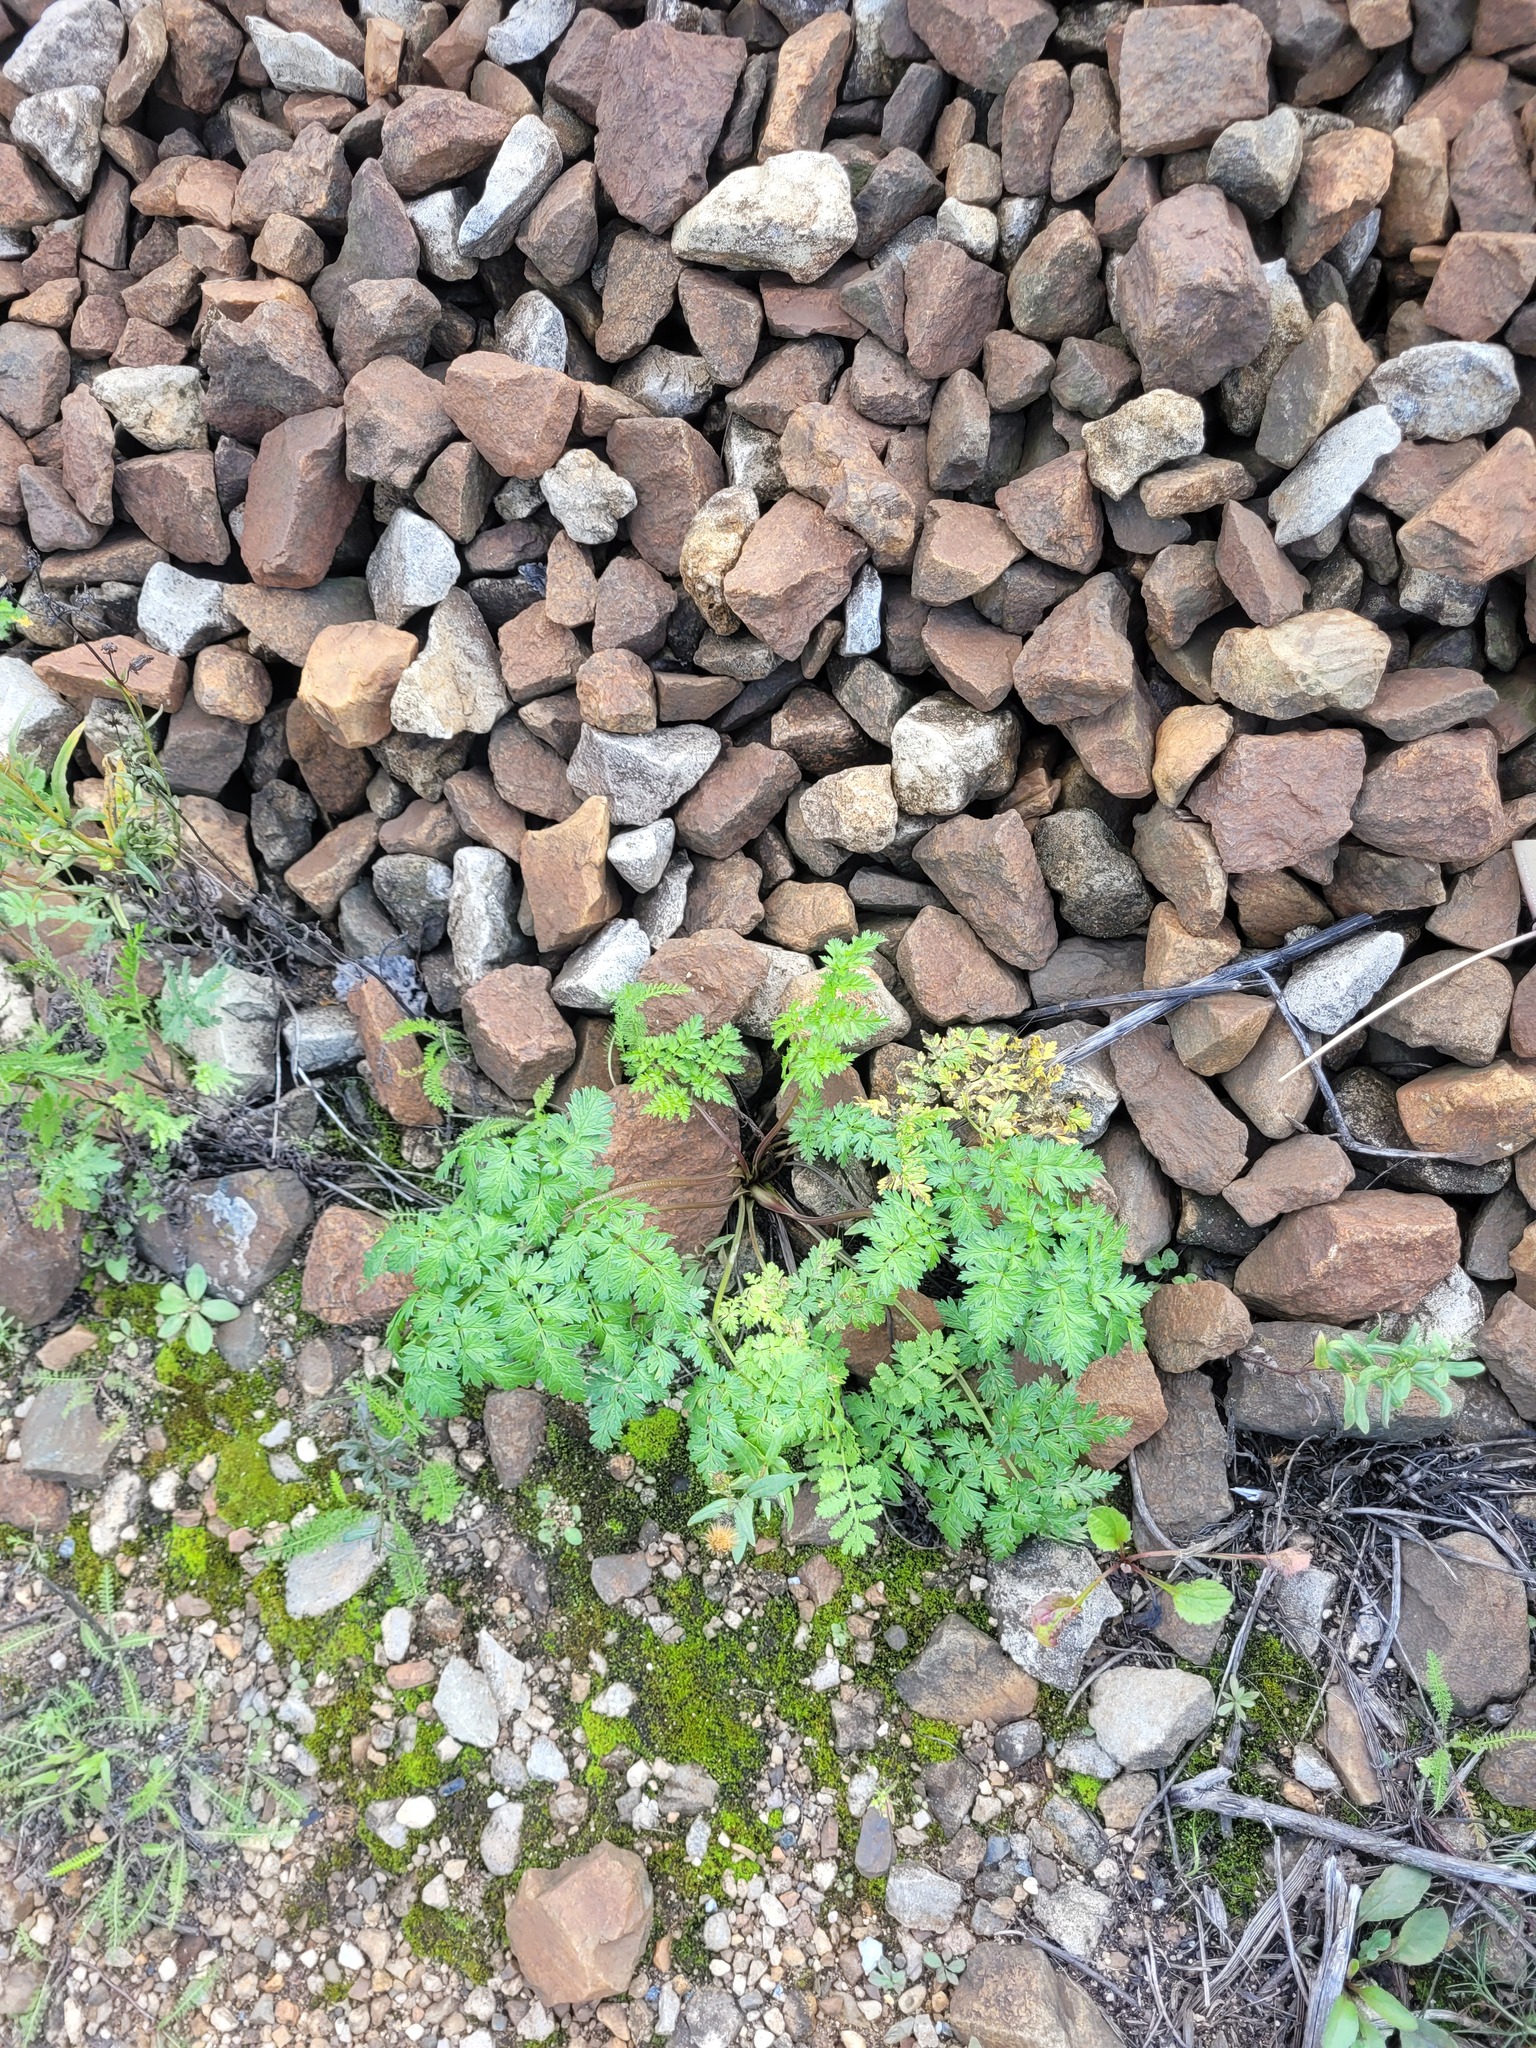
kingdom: Plantae
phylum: Tracheophyta
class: Magnoliopsida
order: Apiales
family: Apiaceae
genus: Anthriscus
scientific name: Anthriscus sylvestris
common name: Cow parsley
